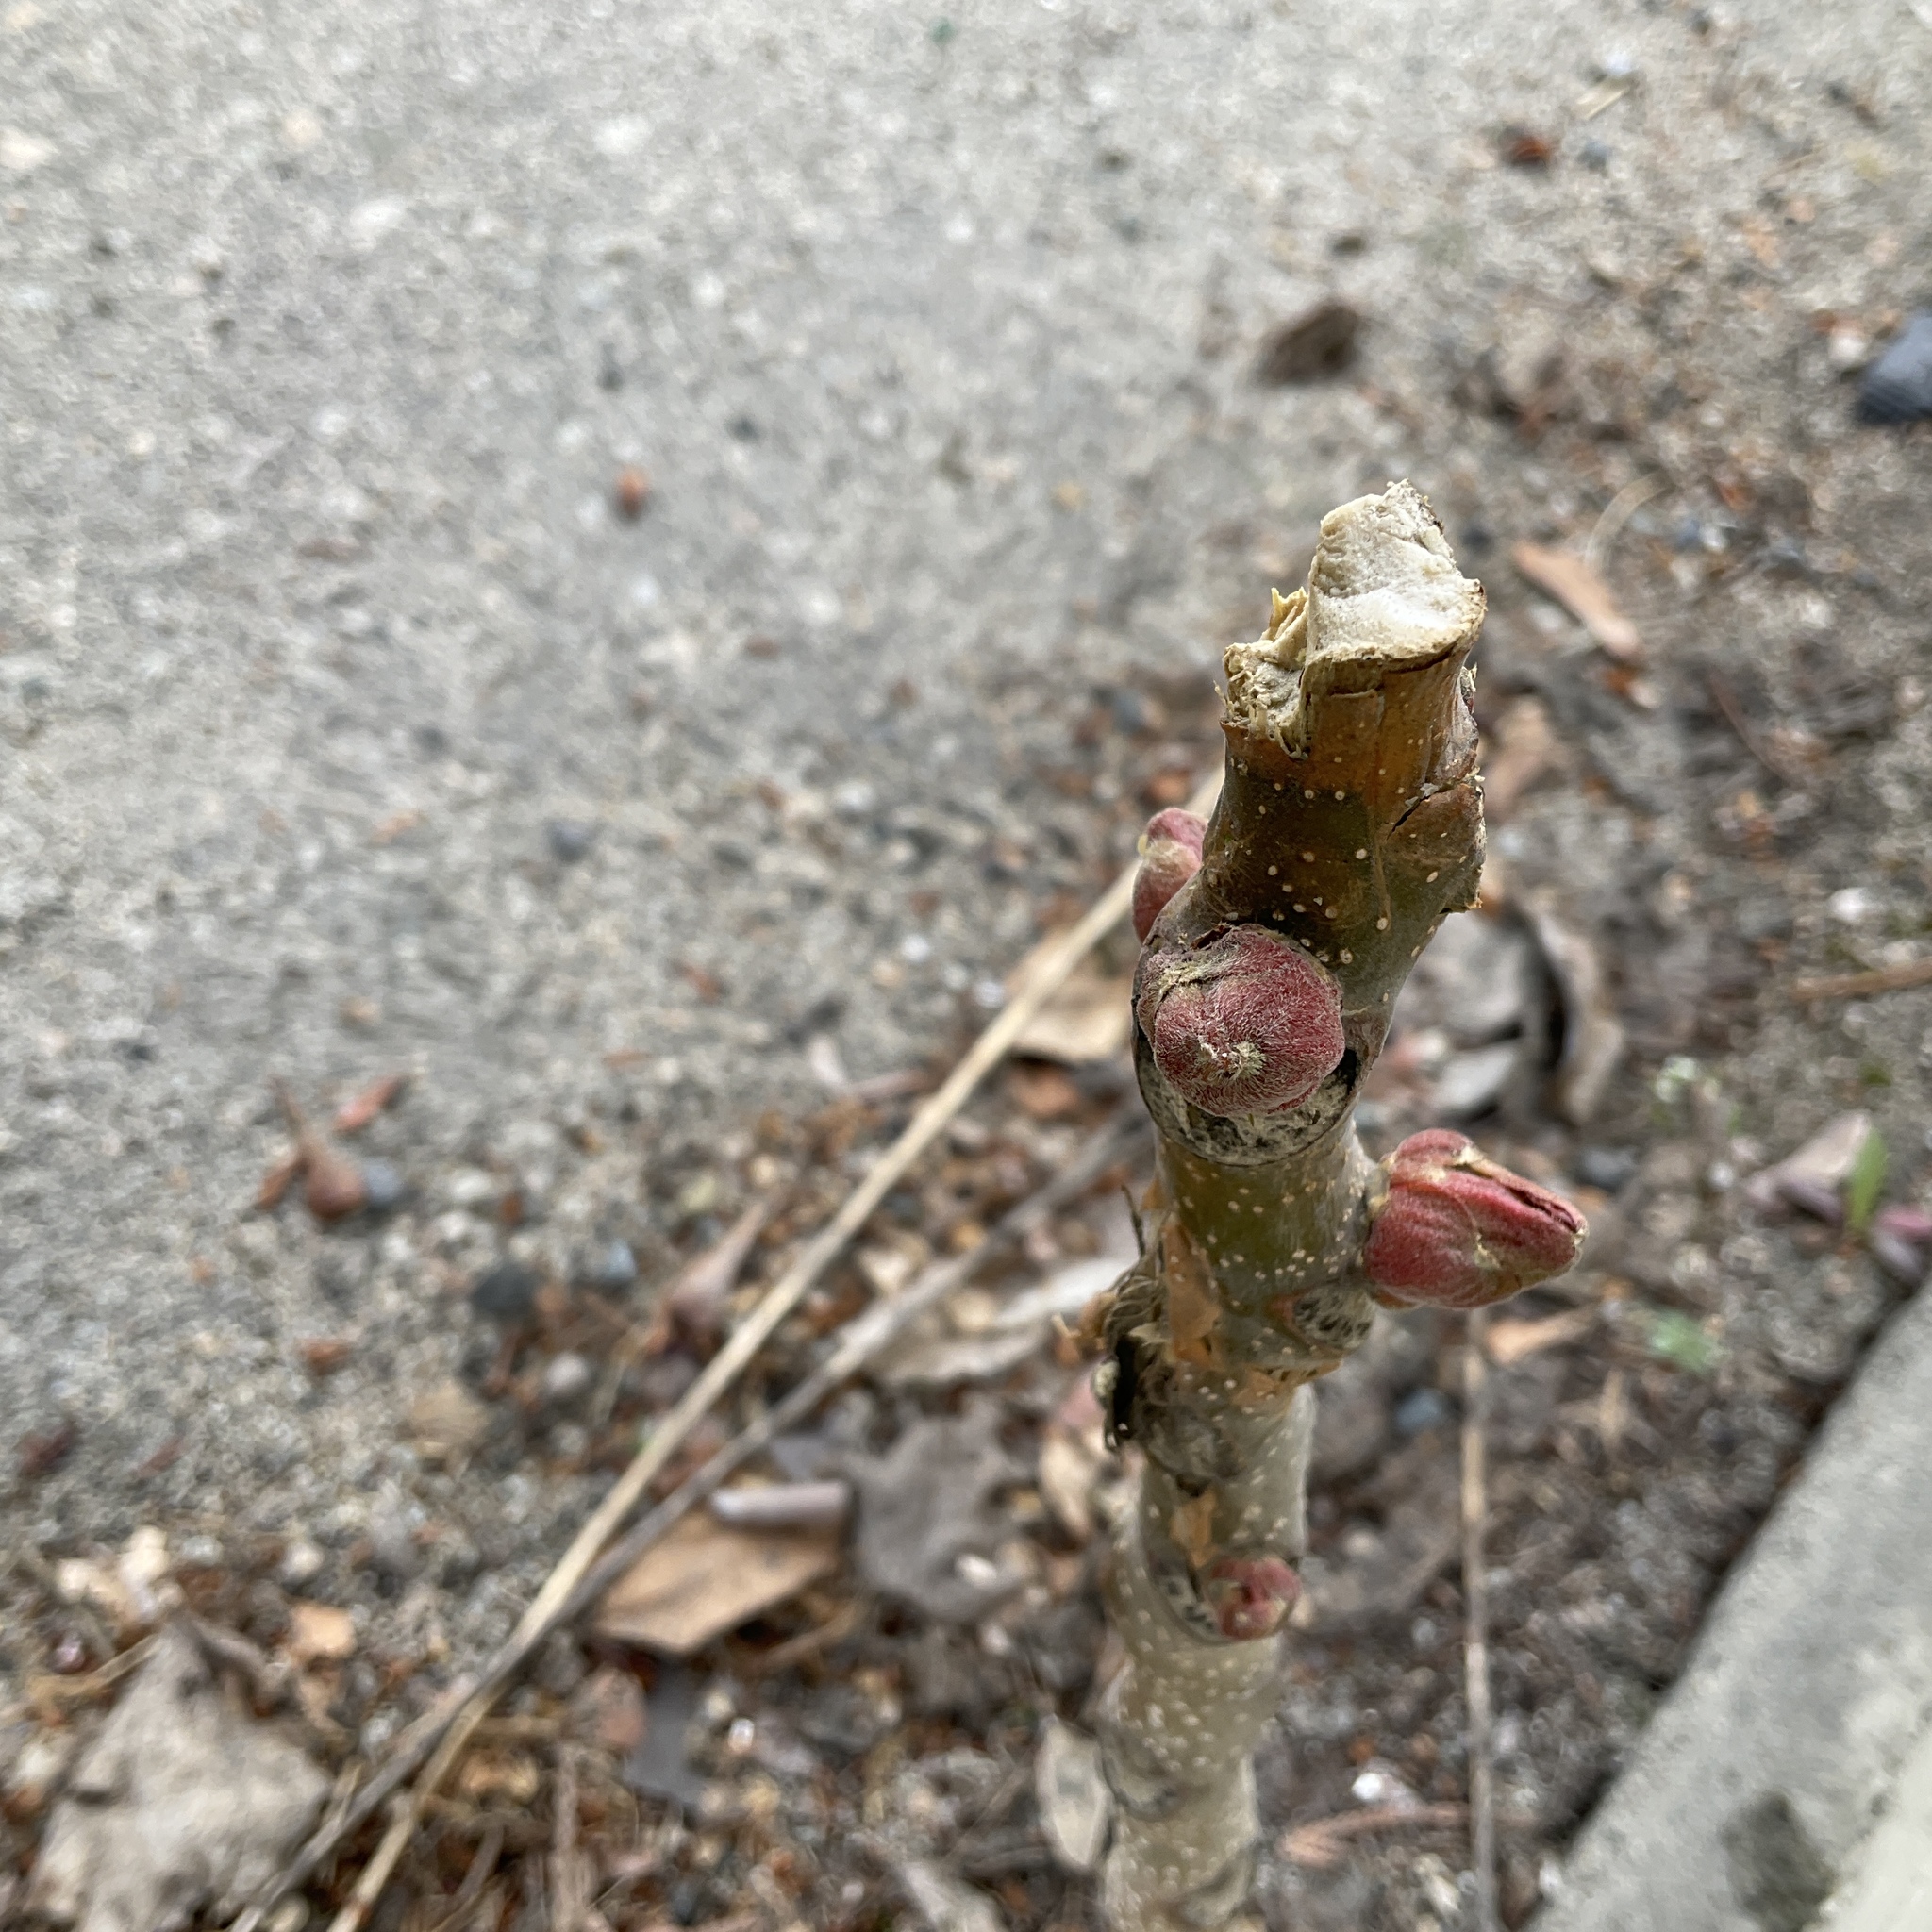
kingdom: Plantae
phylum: Tracheophyta
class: Magnoliopsida
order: Sapindales
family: Simaroubaceae
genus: Ailanthus
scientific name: Ailanthus altissima
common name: Tree-of-heaven
